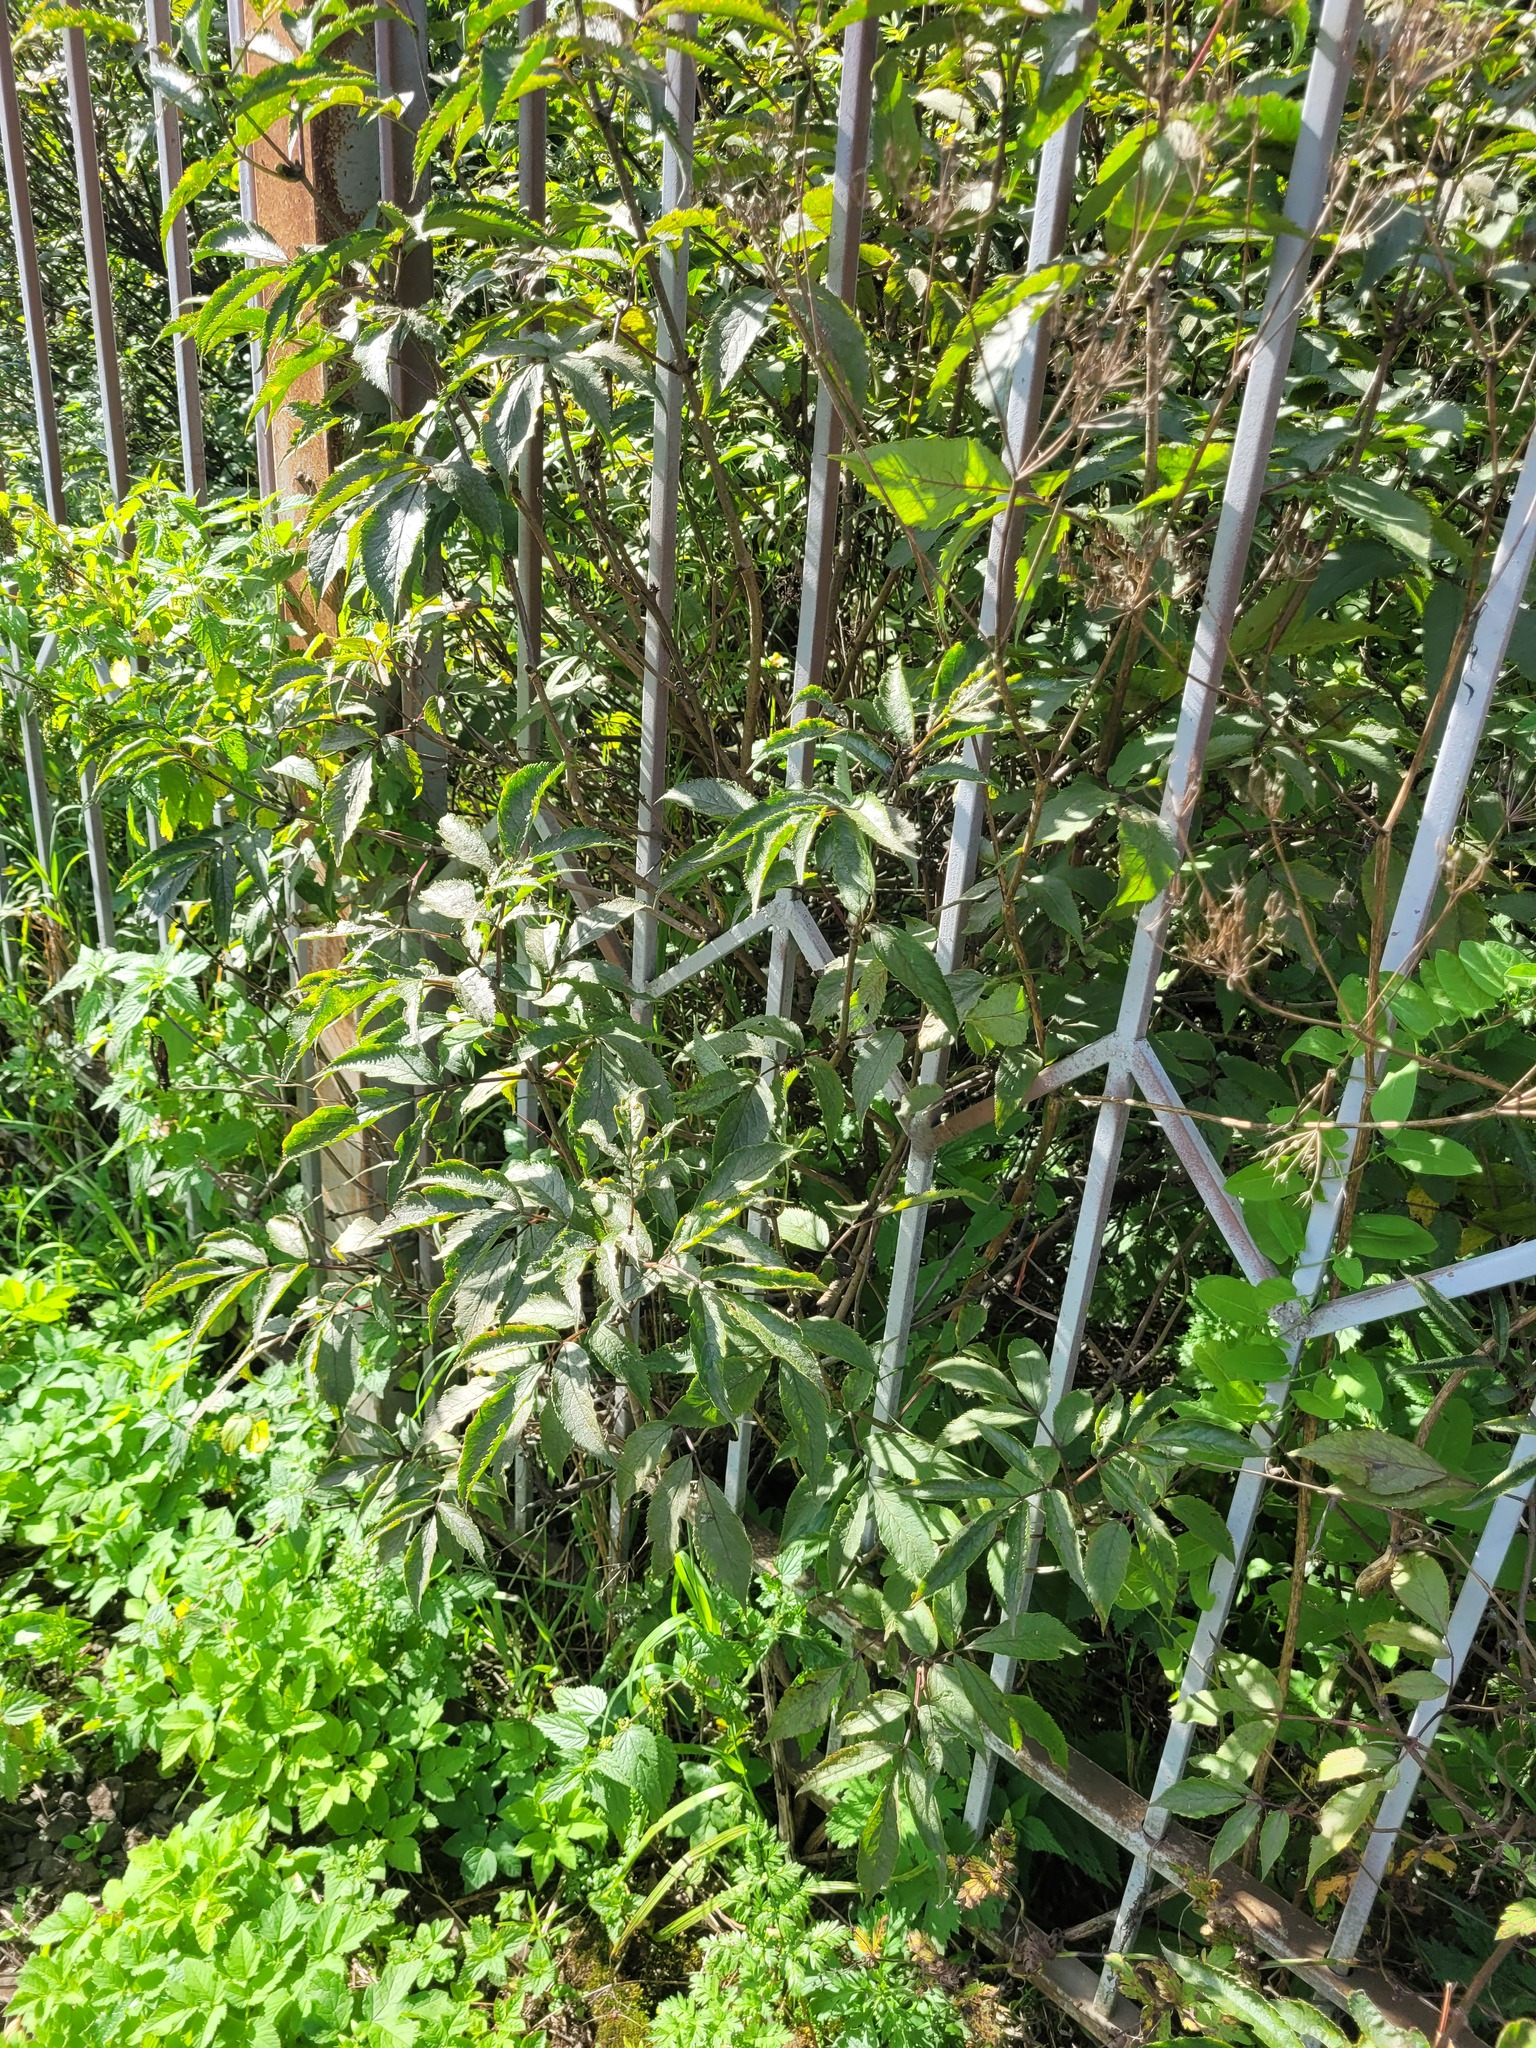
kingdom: Plantae
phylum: Tracheophyta
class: Magnoliopsida
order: Dipsacales
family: Viburnaceae
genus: Sambucus
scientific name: Sambucus racemosa
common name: Red-berried elder
